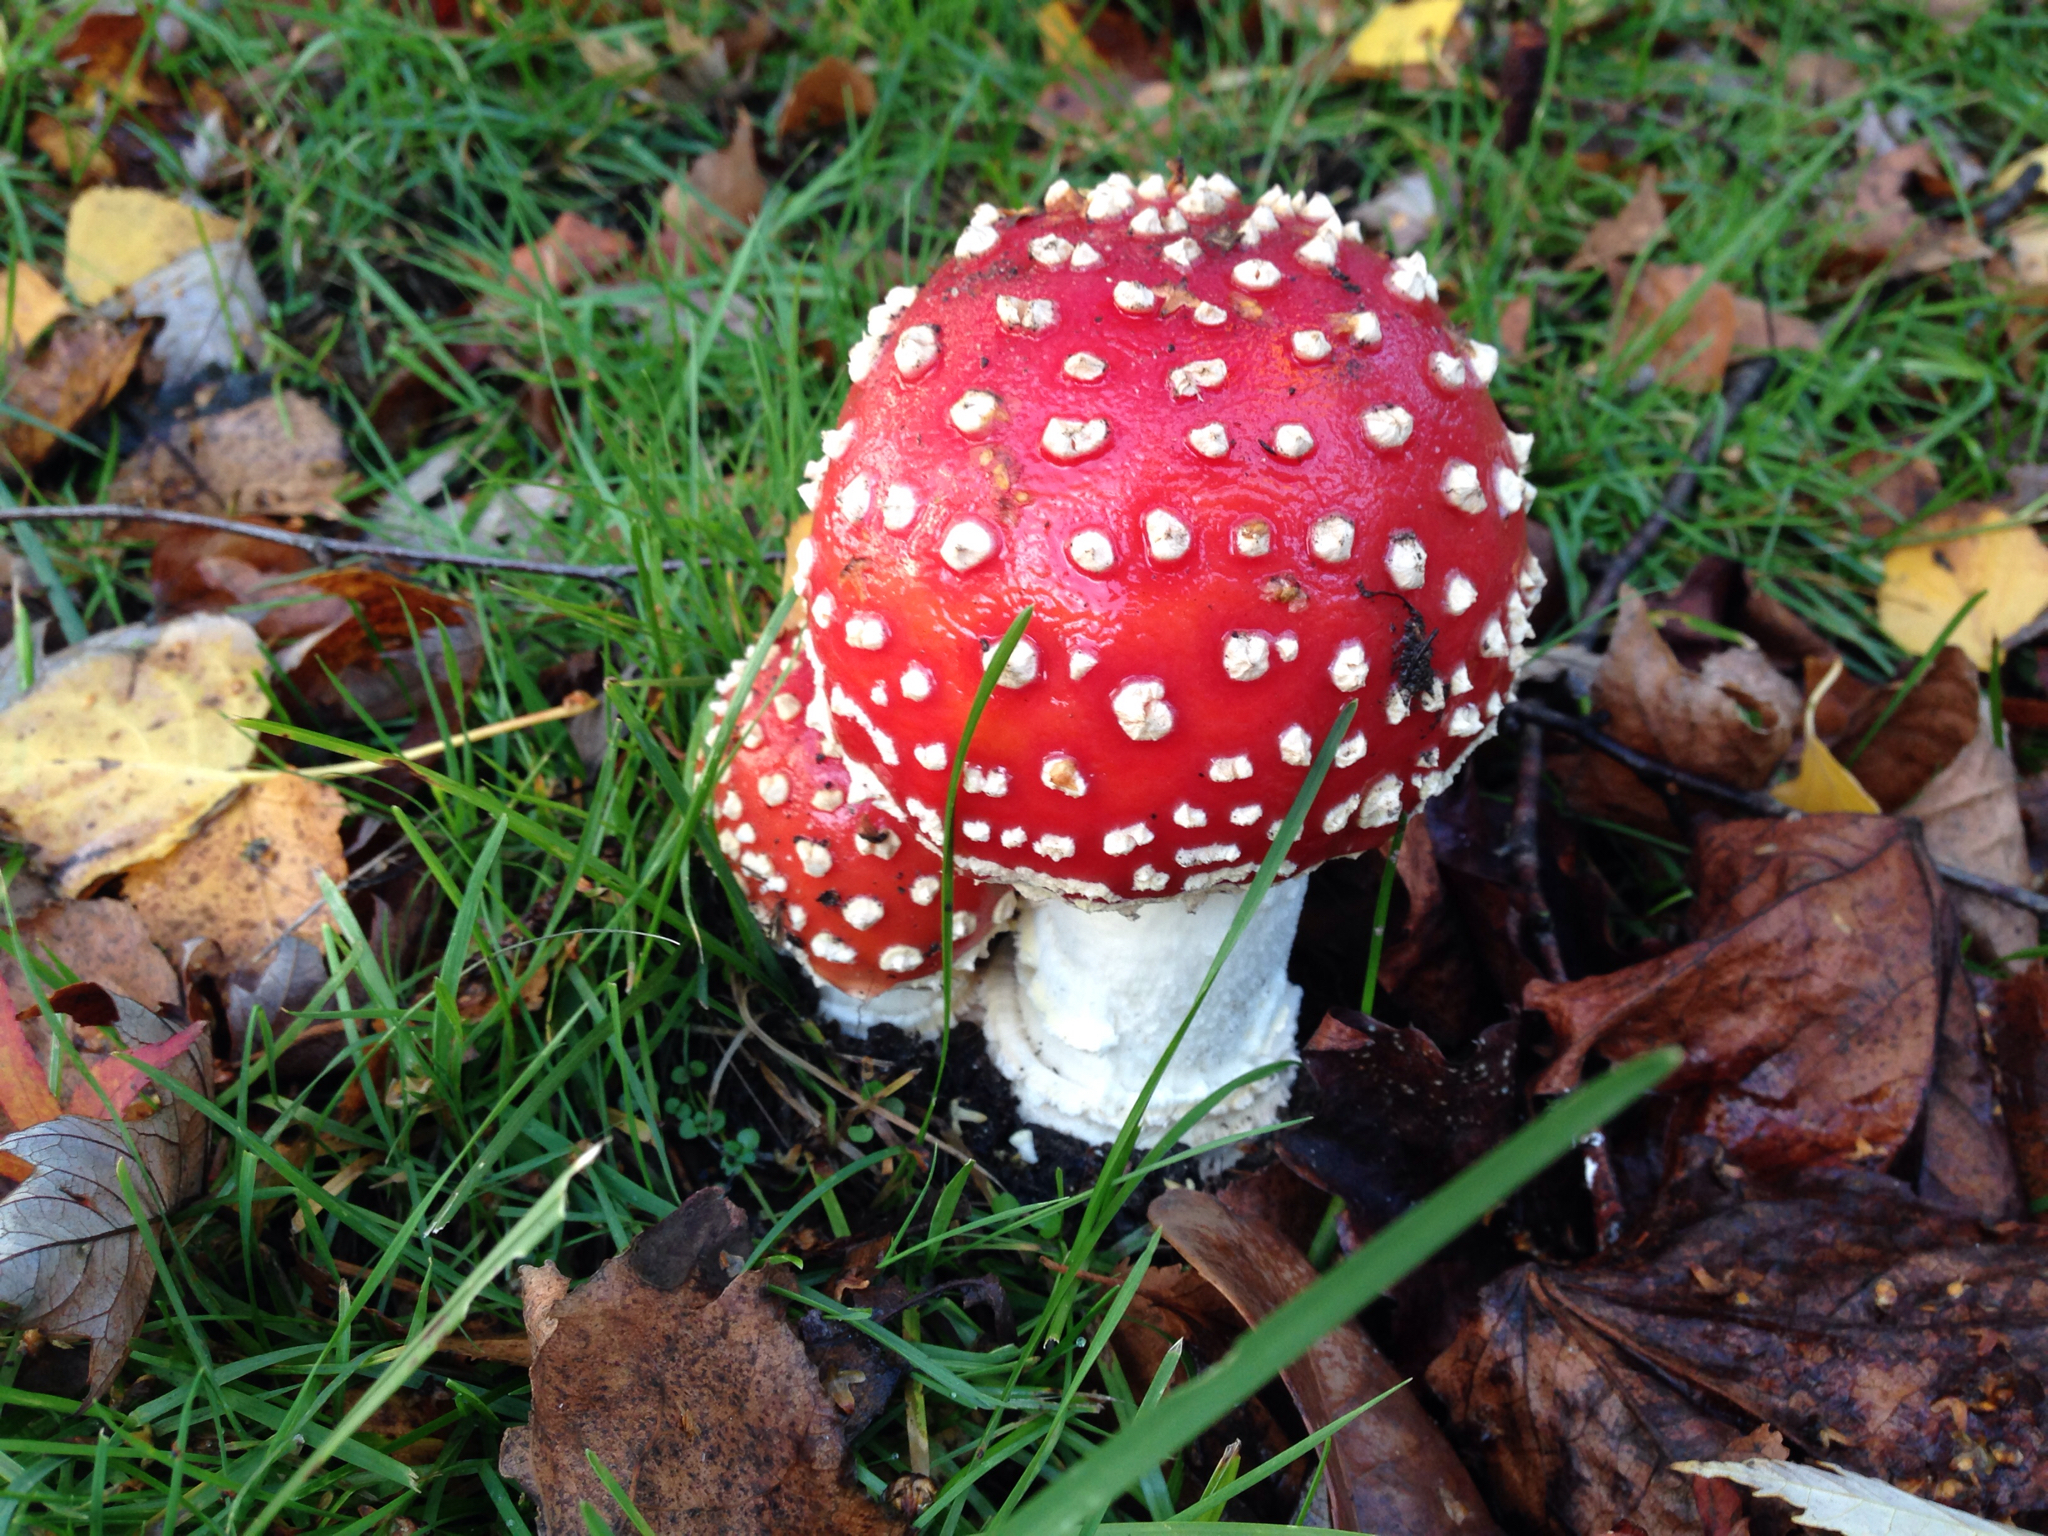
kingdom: Fungi
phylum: Basidiomycota
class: Agaricomycetes
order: Agaricales
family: Amanitaceae
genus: Amanita
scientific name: Amanita muscaria
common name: Fly agaric
